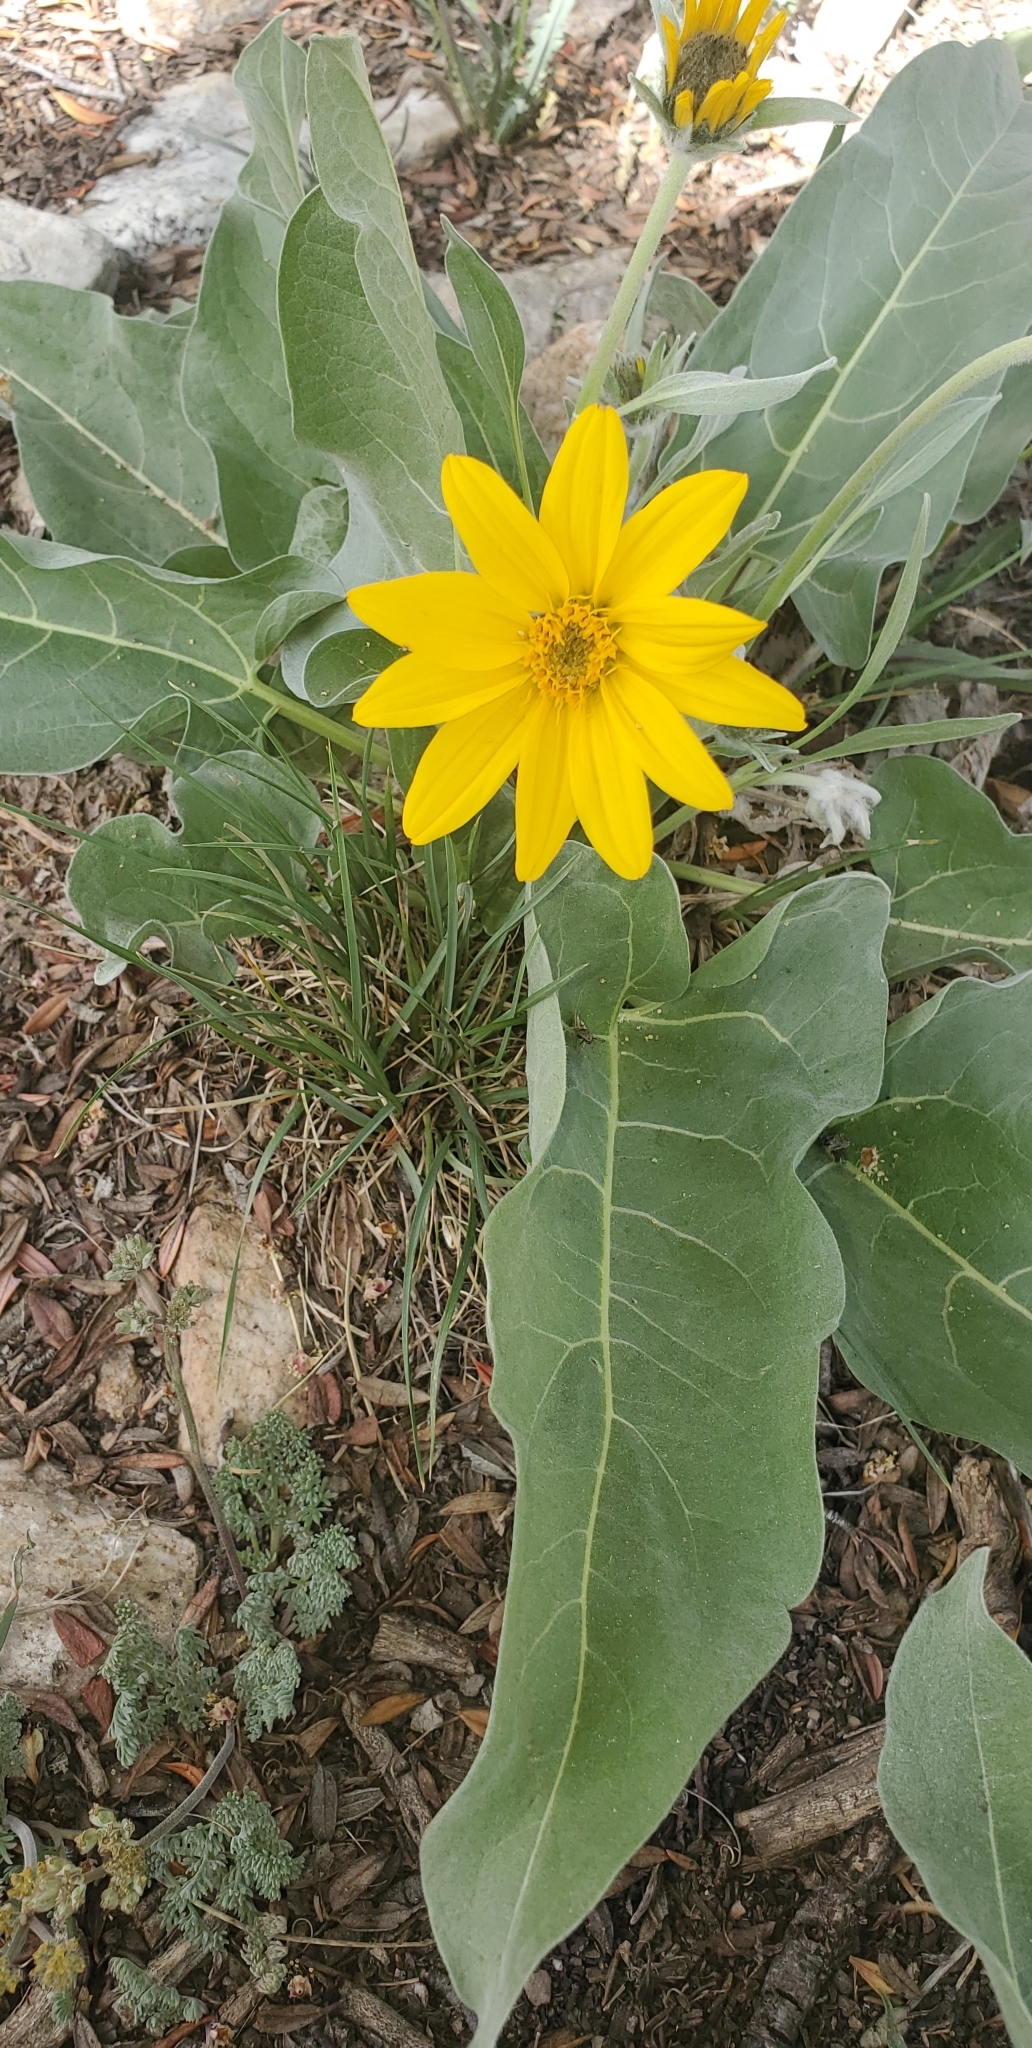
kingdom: Plantae
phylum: Tracheophyta
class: Magnoliopsida
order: Asterales
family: Asteraceae
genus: Wyethia
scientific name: Wyethia sagittata
